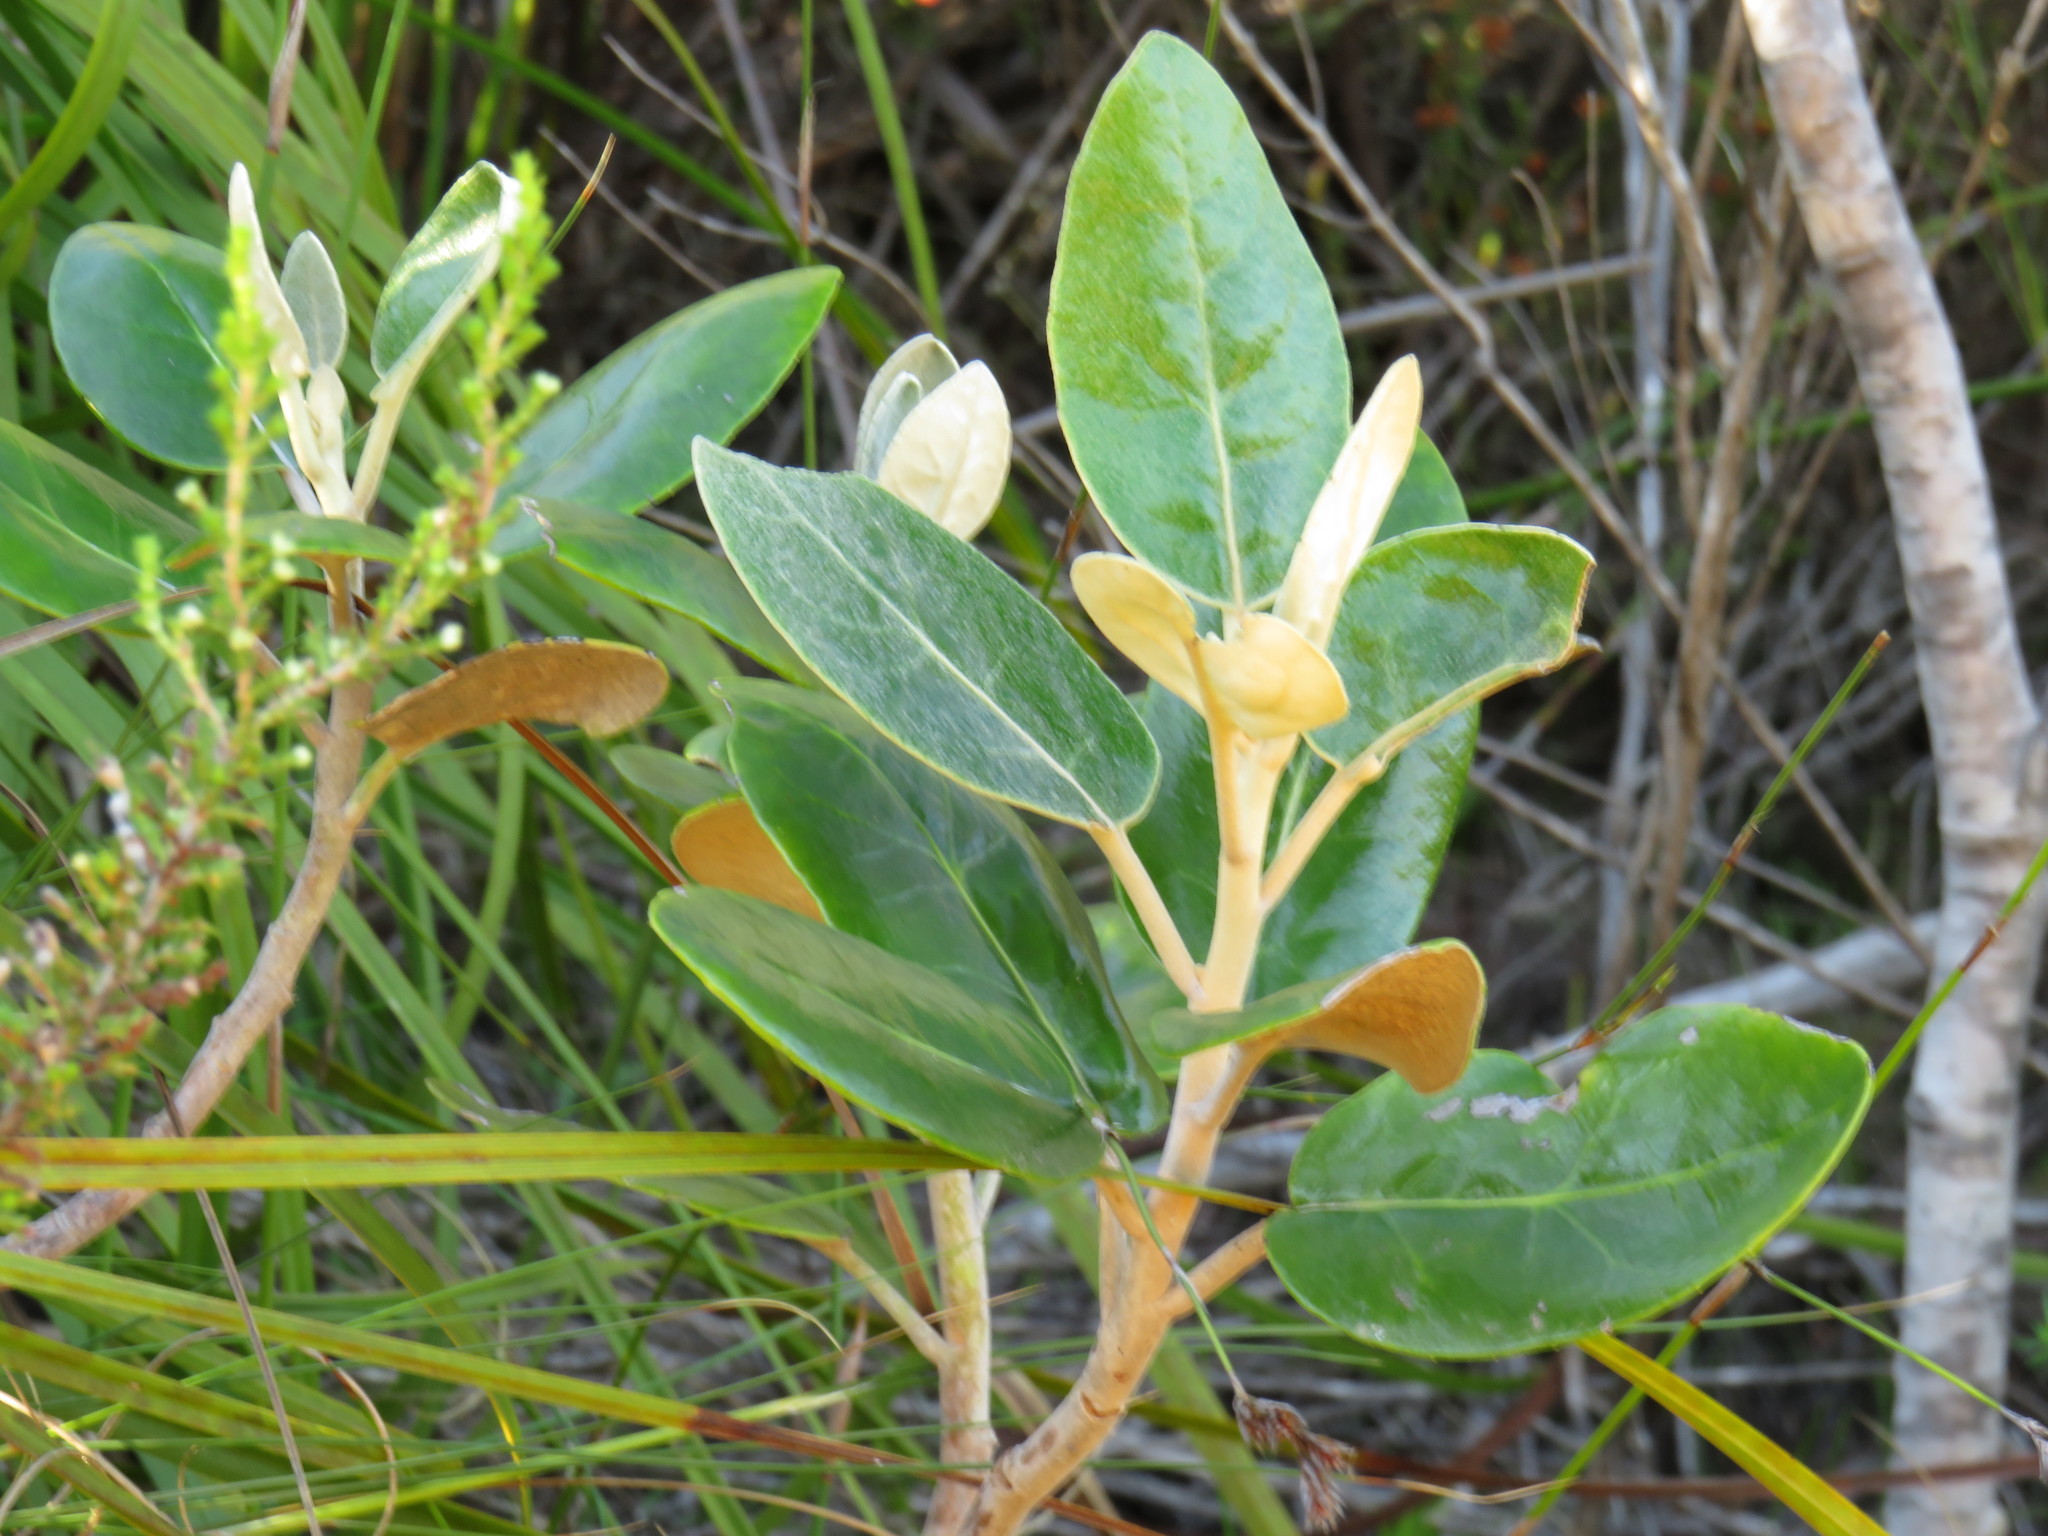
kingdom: Plantae
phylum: Tracheophyta
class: Magnoliopsida
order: Asterales
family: Asteraceae
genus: Capelio
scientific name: Capelio tabularis
